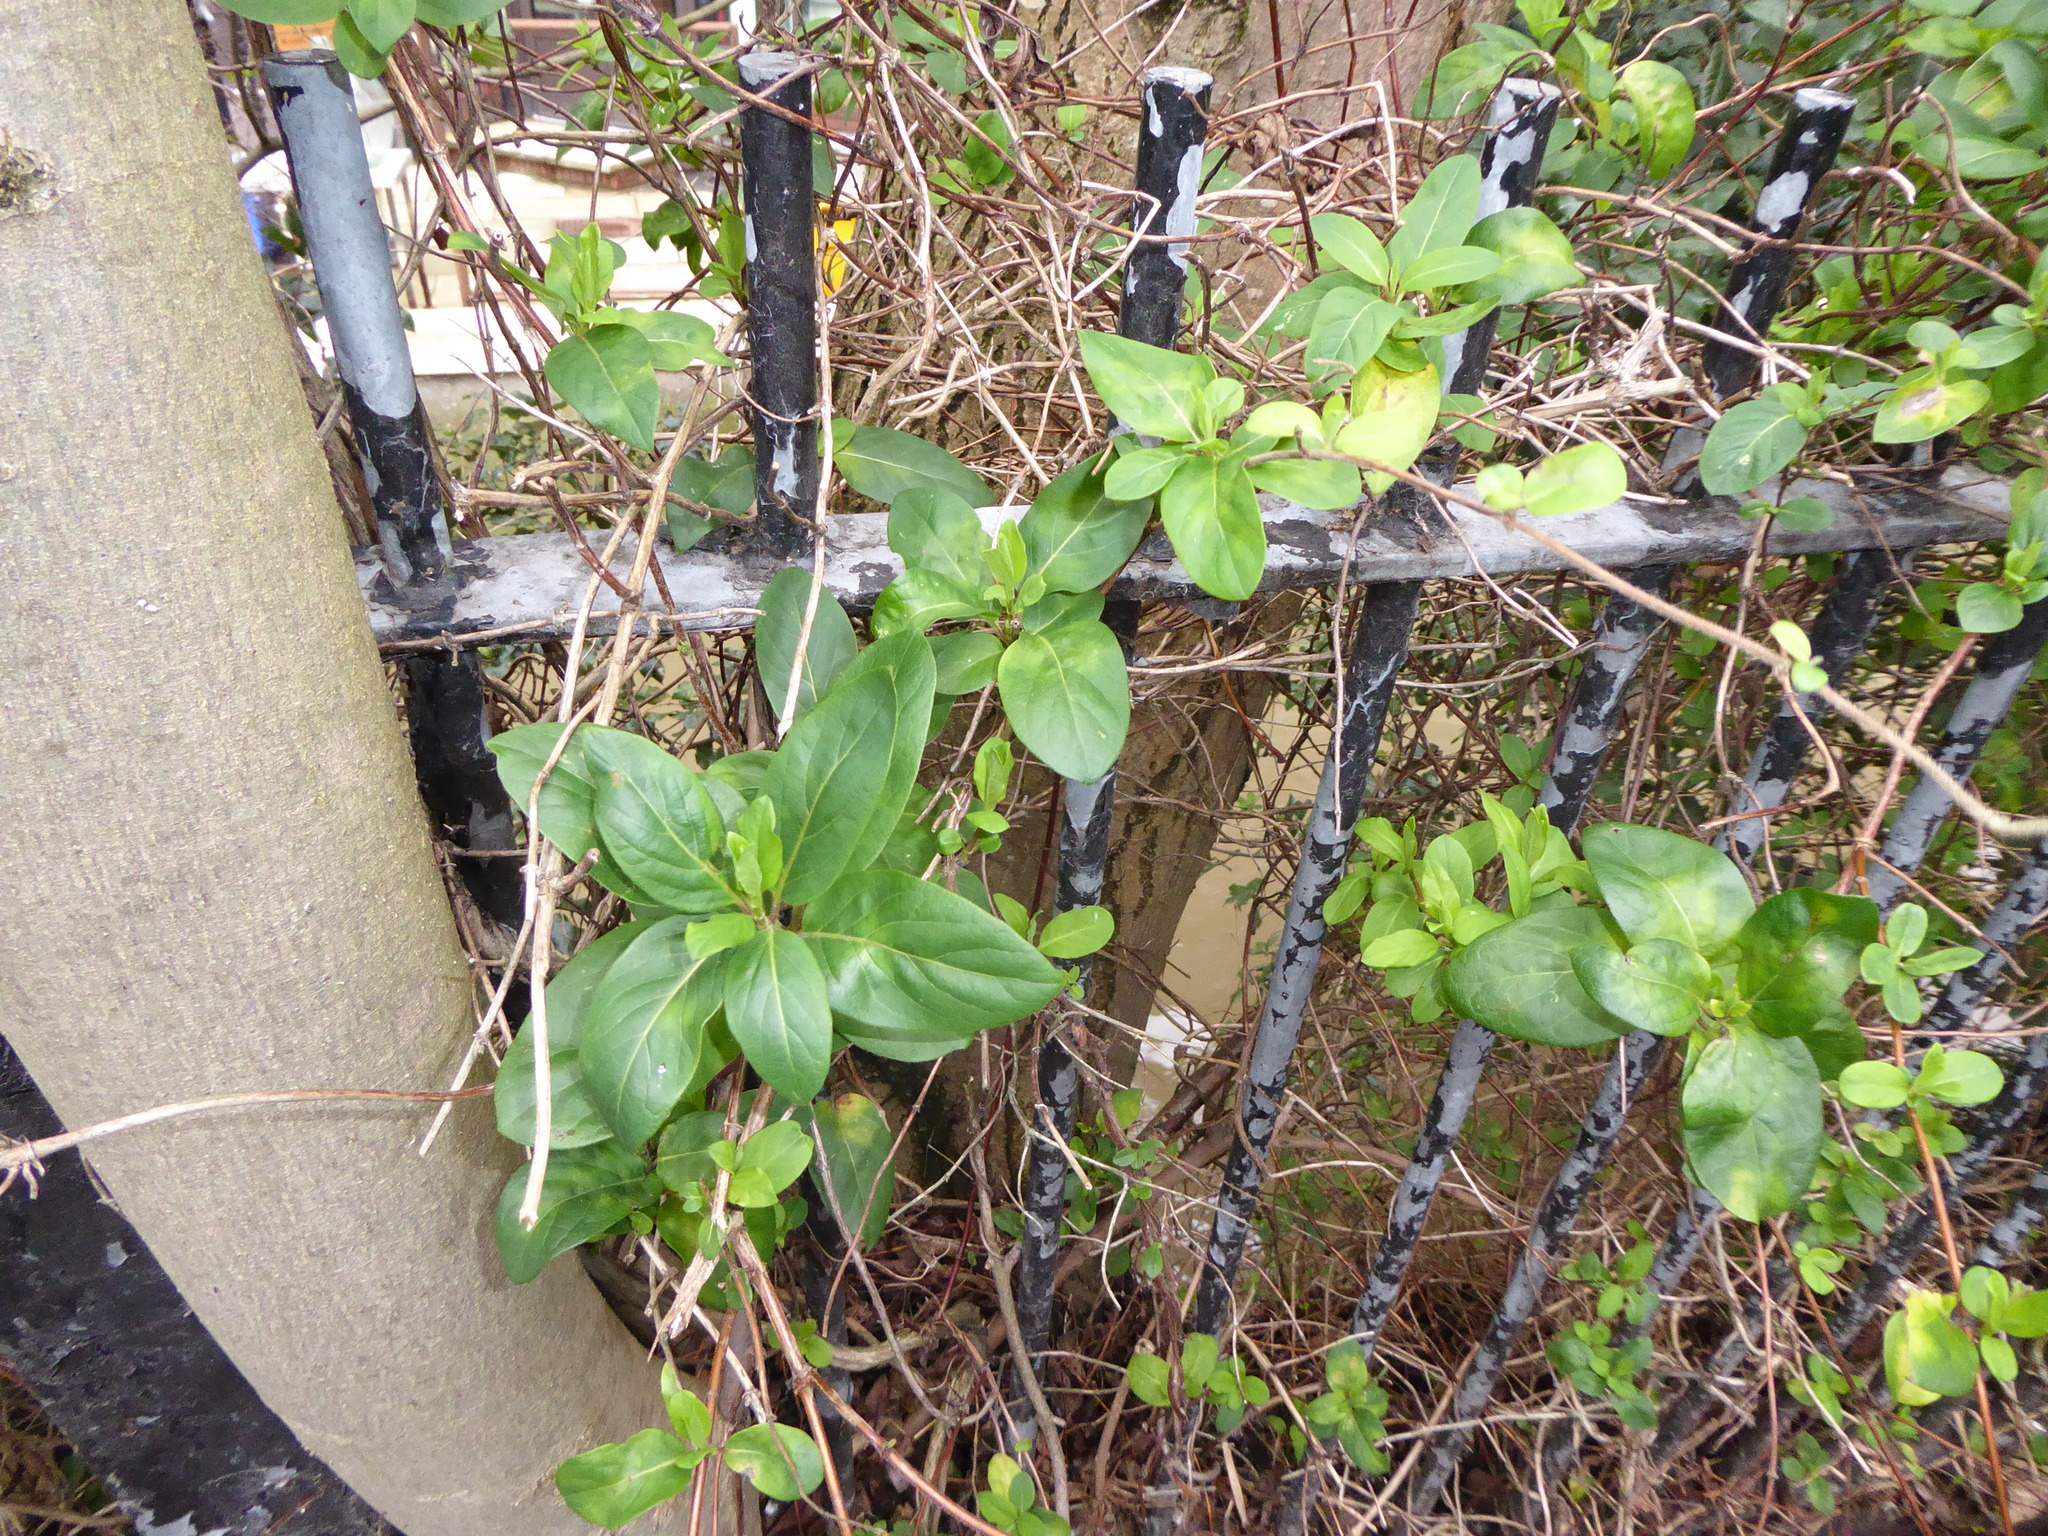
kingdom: Plantae
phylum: Tracheophyta
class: Magnoliopsida
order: Dipsacales
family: Caprifoliaceae
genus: Lonicera
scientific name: Lonicera japonica
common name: Japanese honeysuckle
